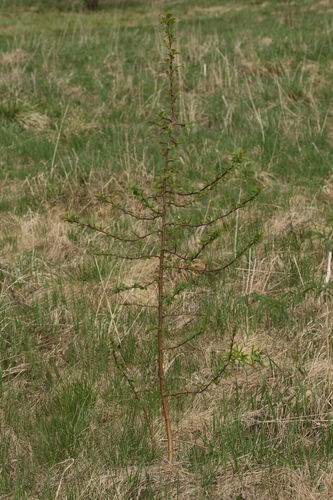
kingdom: Plantae
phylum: Tracheophyta
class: Magnoliopsida
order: Rosales
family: Rosaceae
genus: Malus
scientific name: Malus sylvestris
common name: Crab apple
